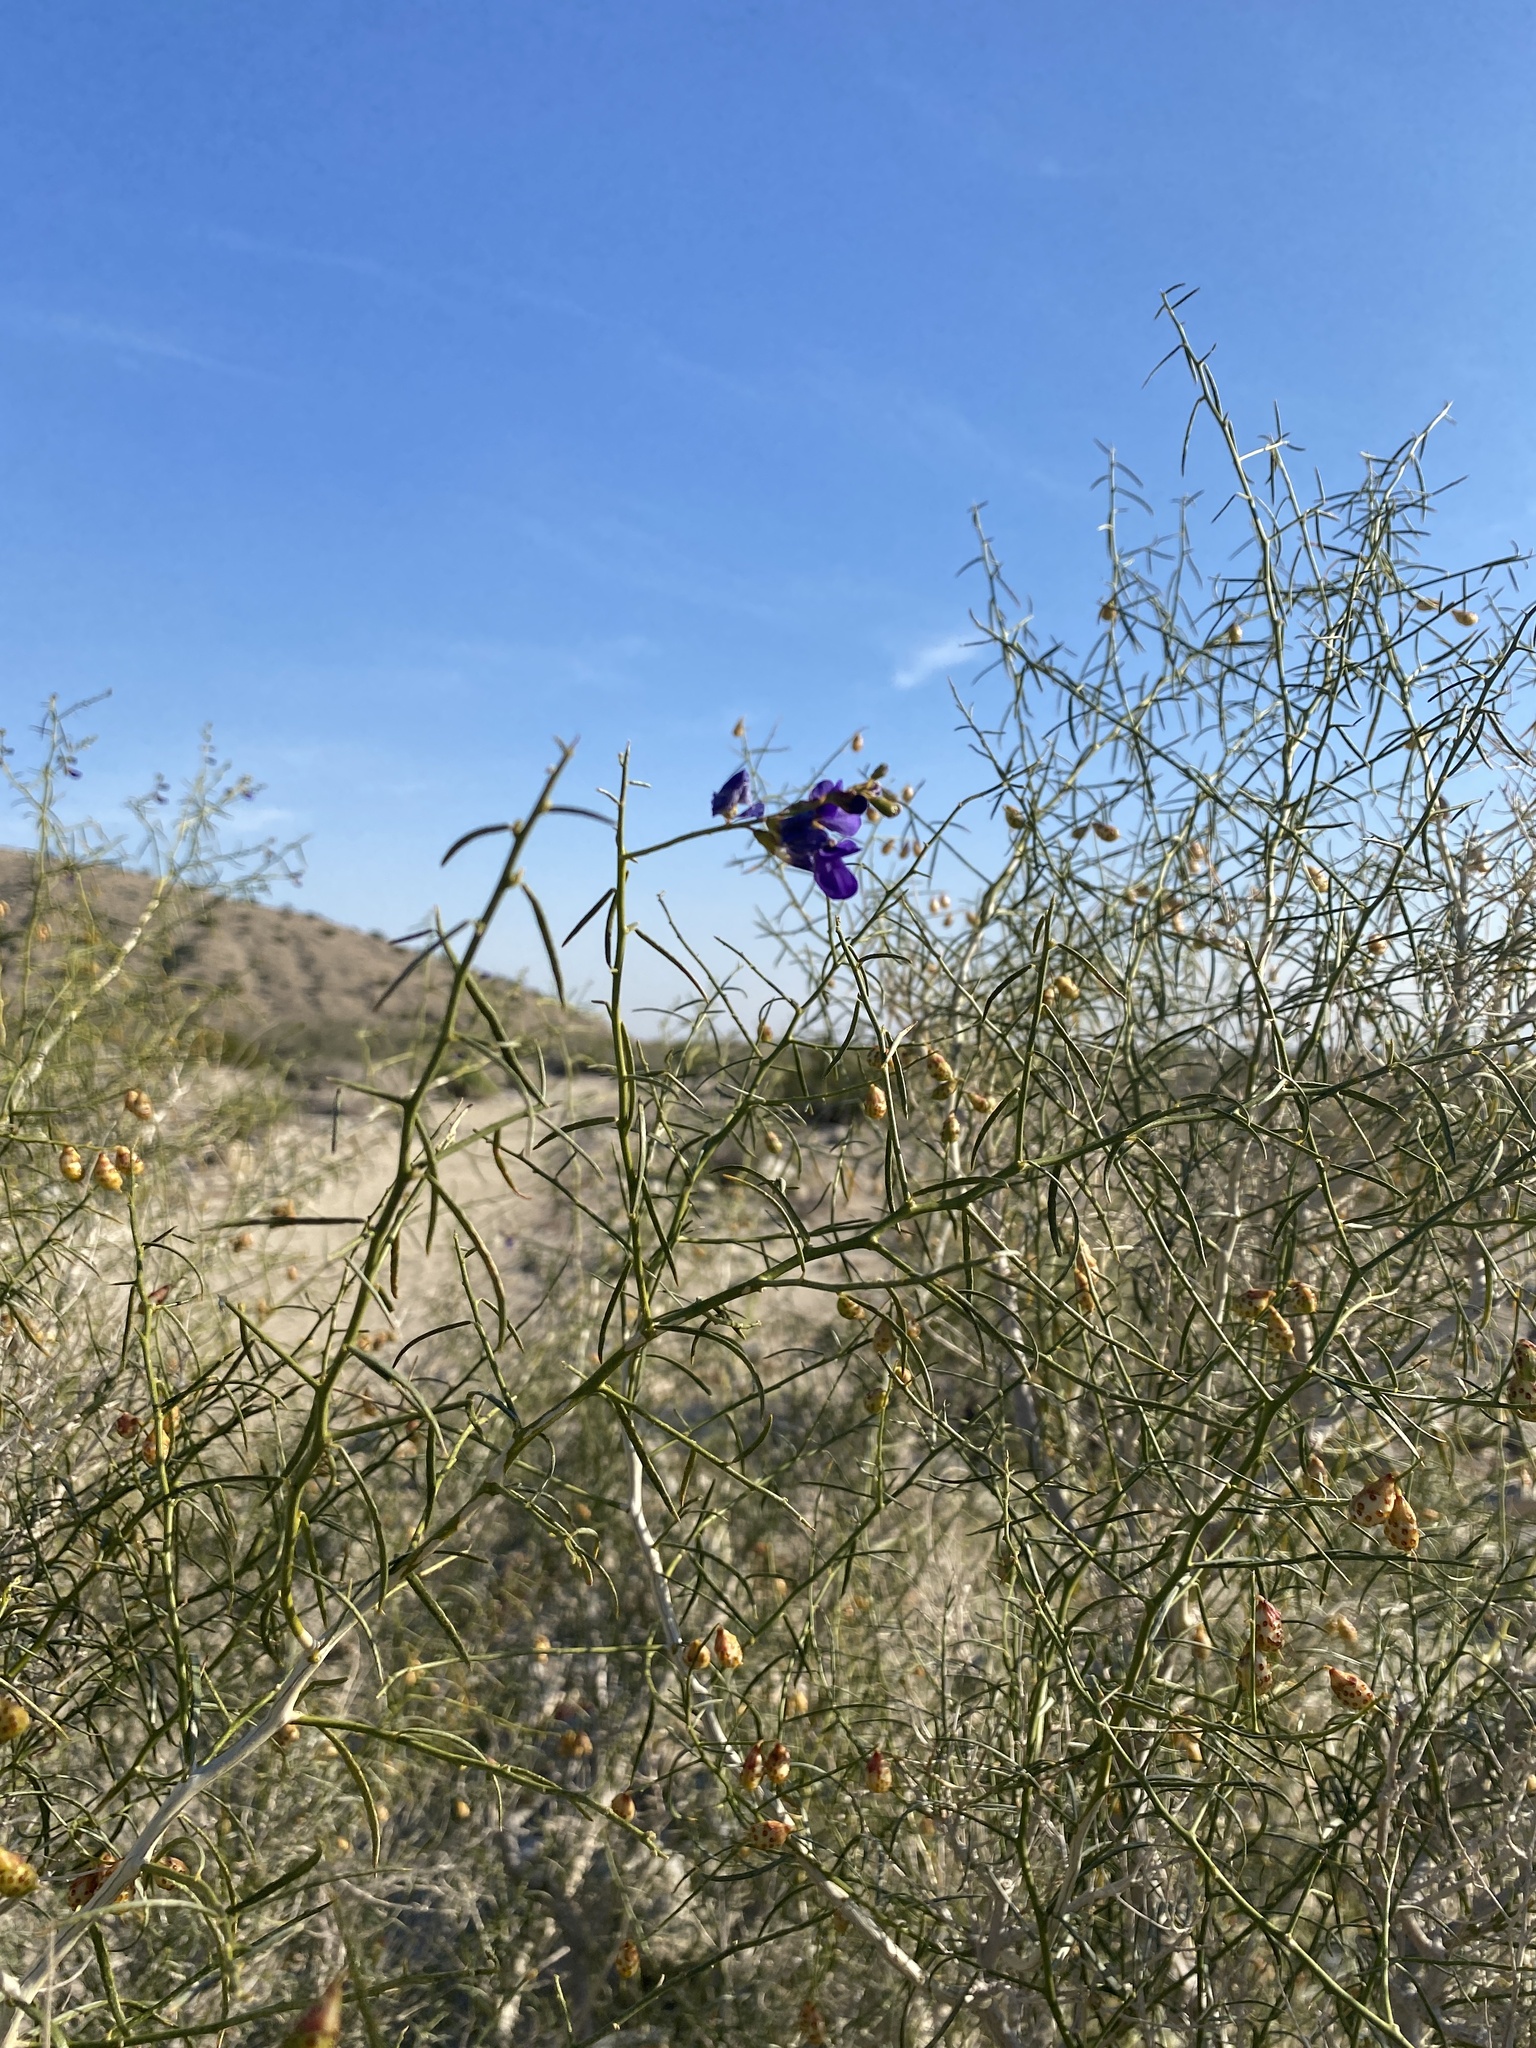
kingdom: Plantae
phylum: Tracheophyta
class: Magnoliopsida
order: Fabales
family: Fabaceae
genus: Psorothamnus
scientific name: Psorothamnus schottii
